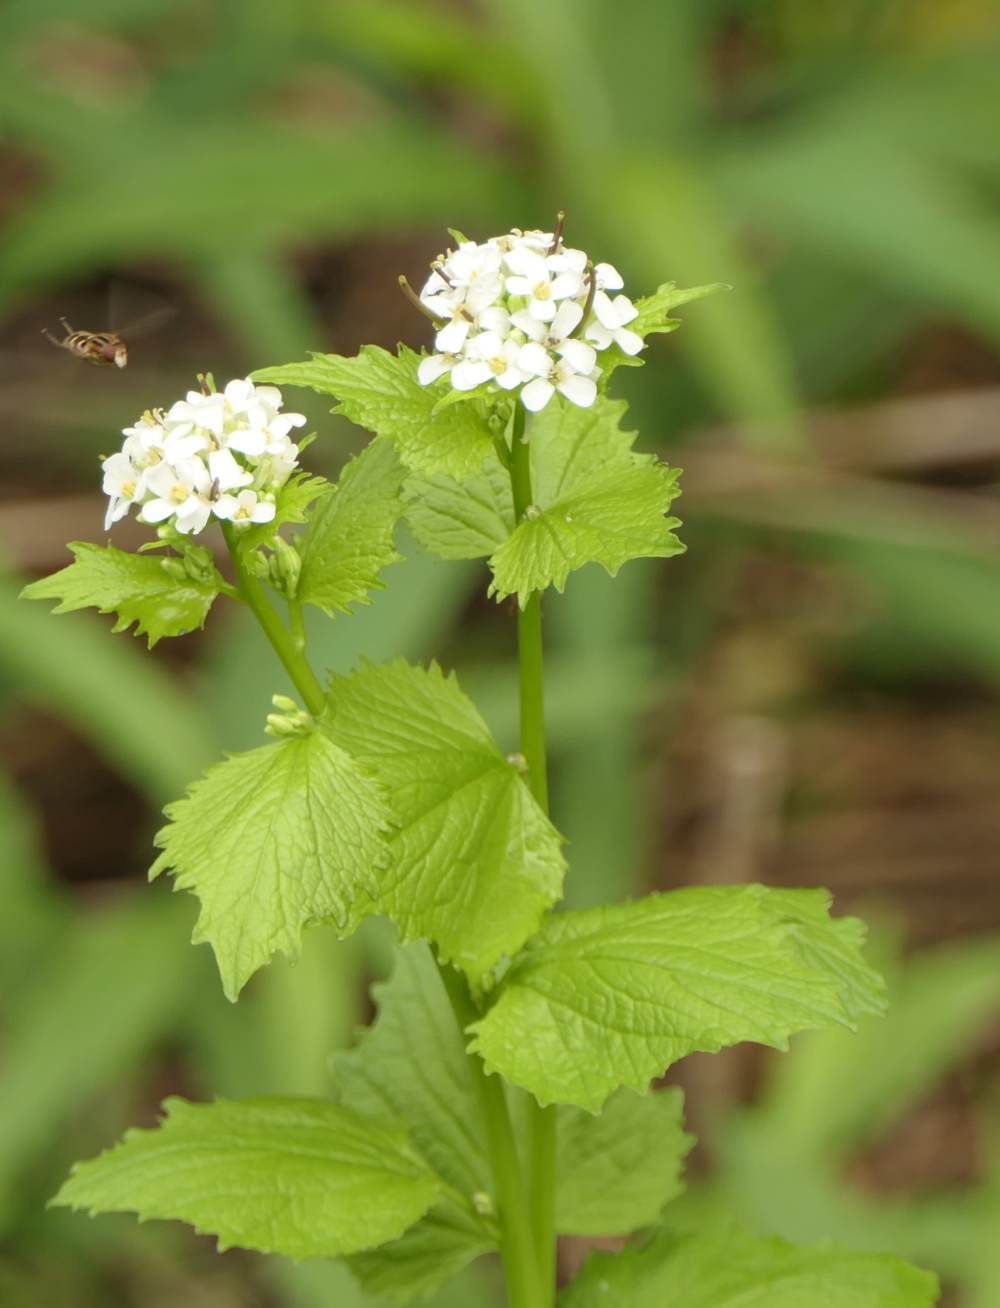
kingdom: Plantae
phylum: Tracheophyta
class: Magnoliopsida
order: Brassicales
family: Brassicaceae
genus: Alliaria
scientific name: Alliaria petiolata
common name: Garlic mustard
